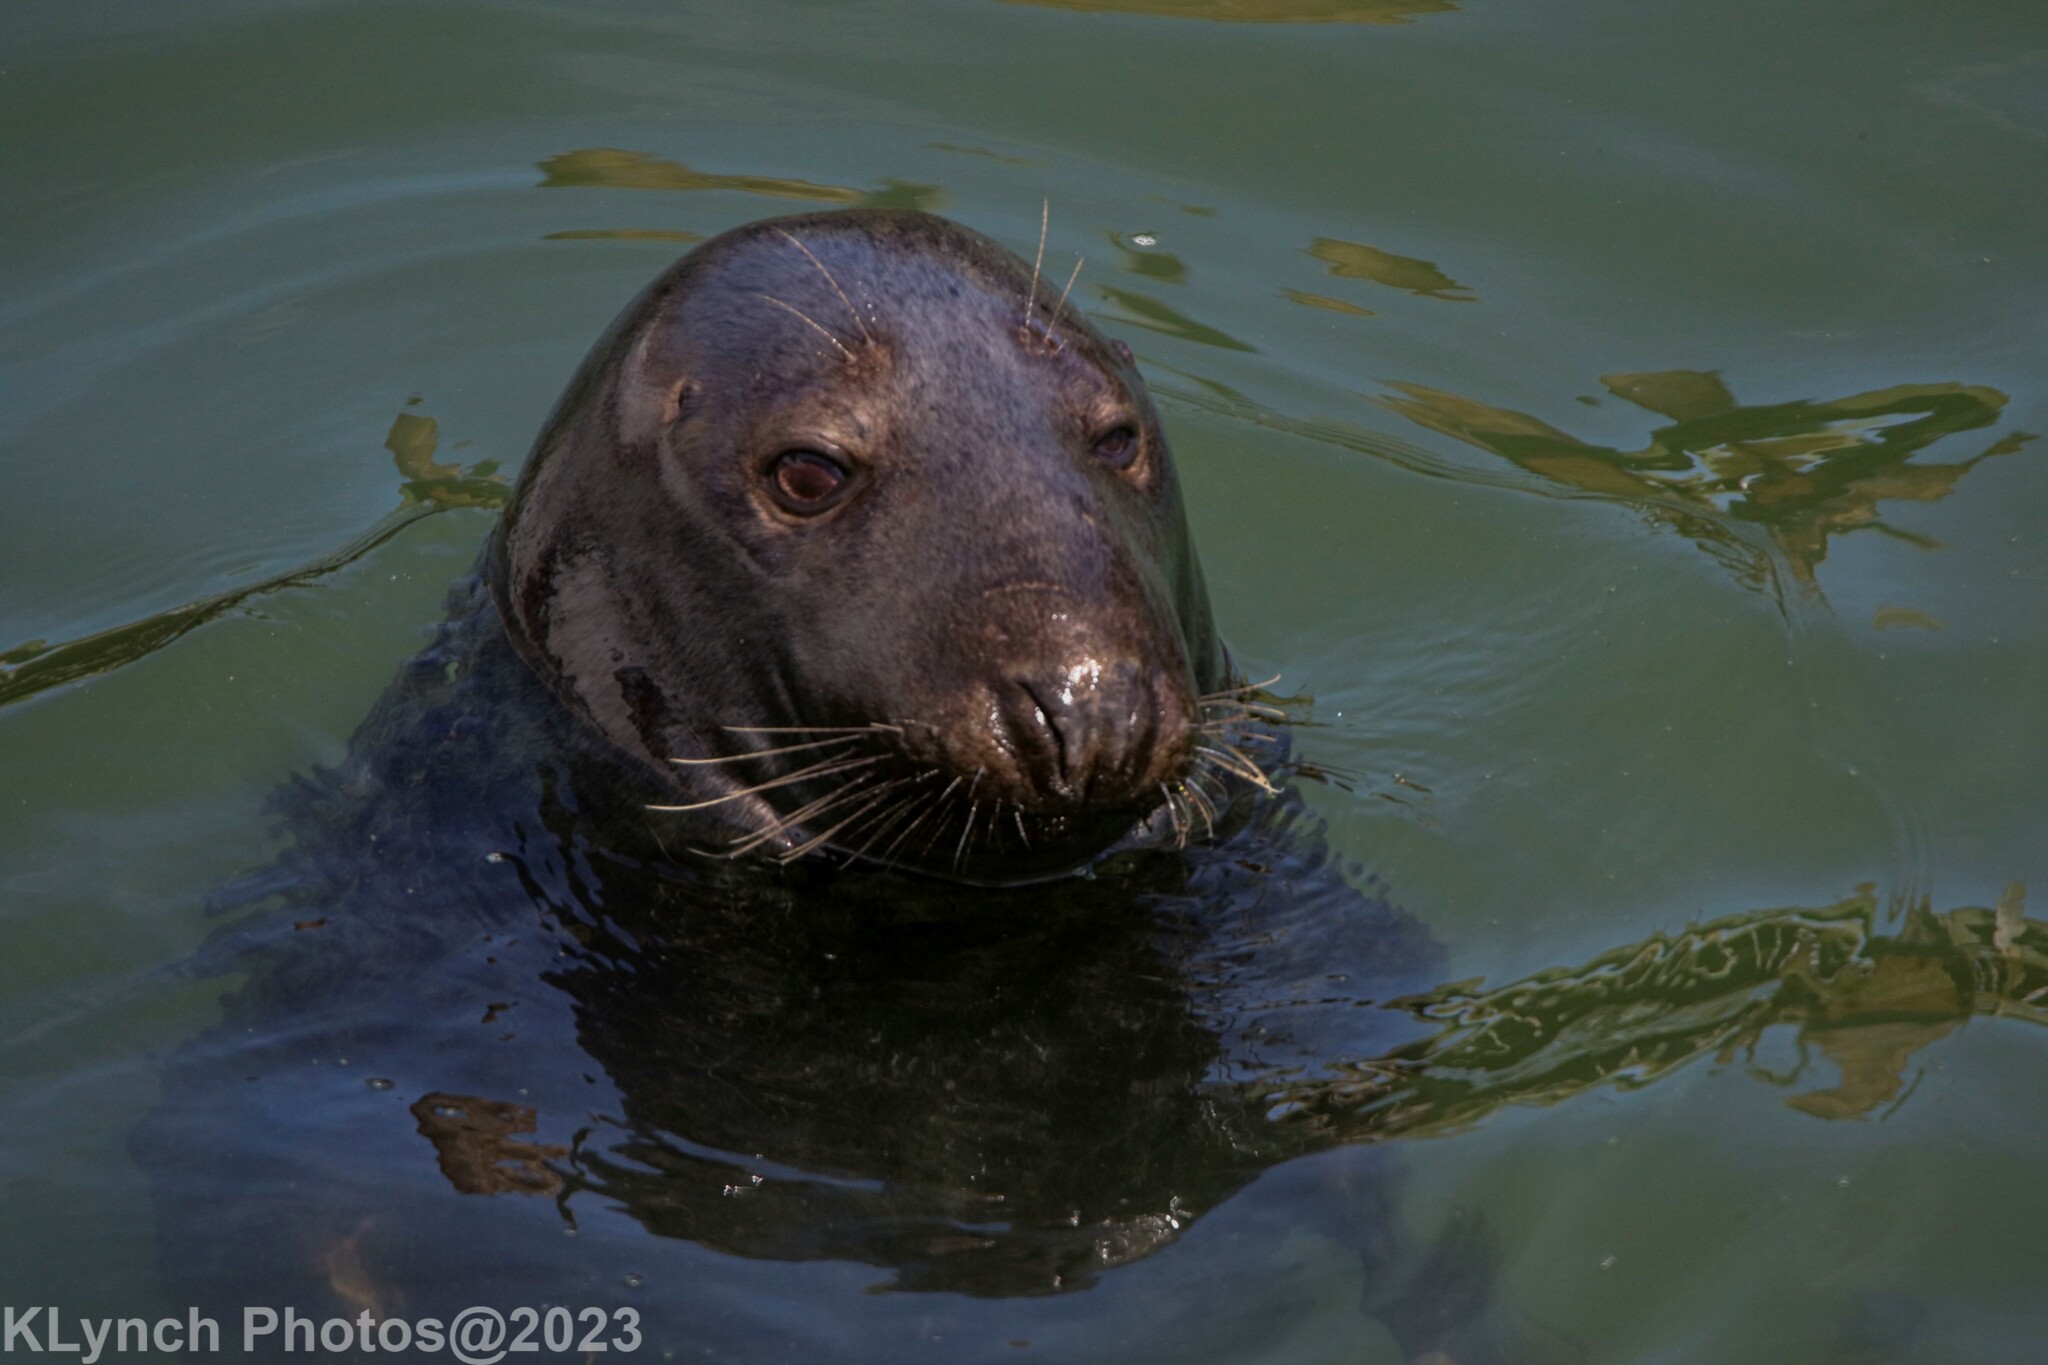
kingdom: Animalia
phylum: Chordata
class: Mammalia
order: Carnivora
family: Phocidae
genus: Halichoerus
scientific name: Halichoerus grypus
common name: Grey seal
